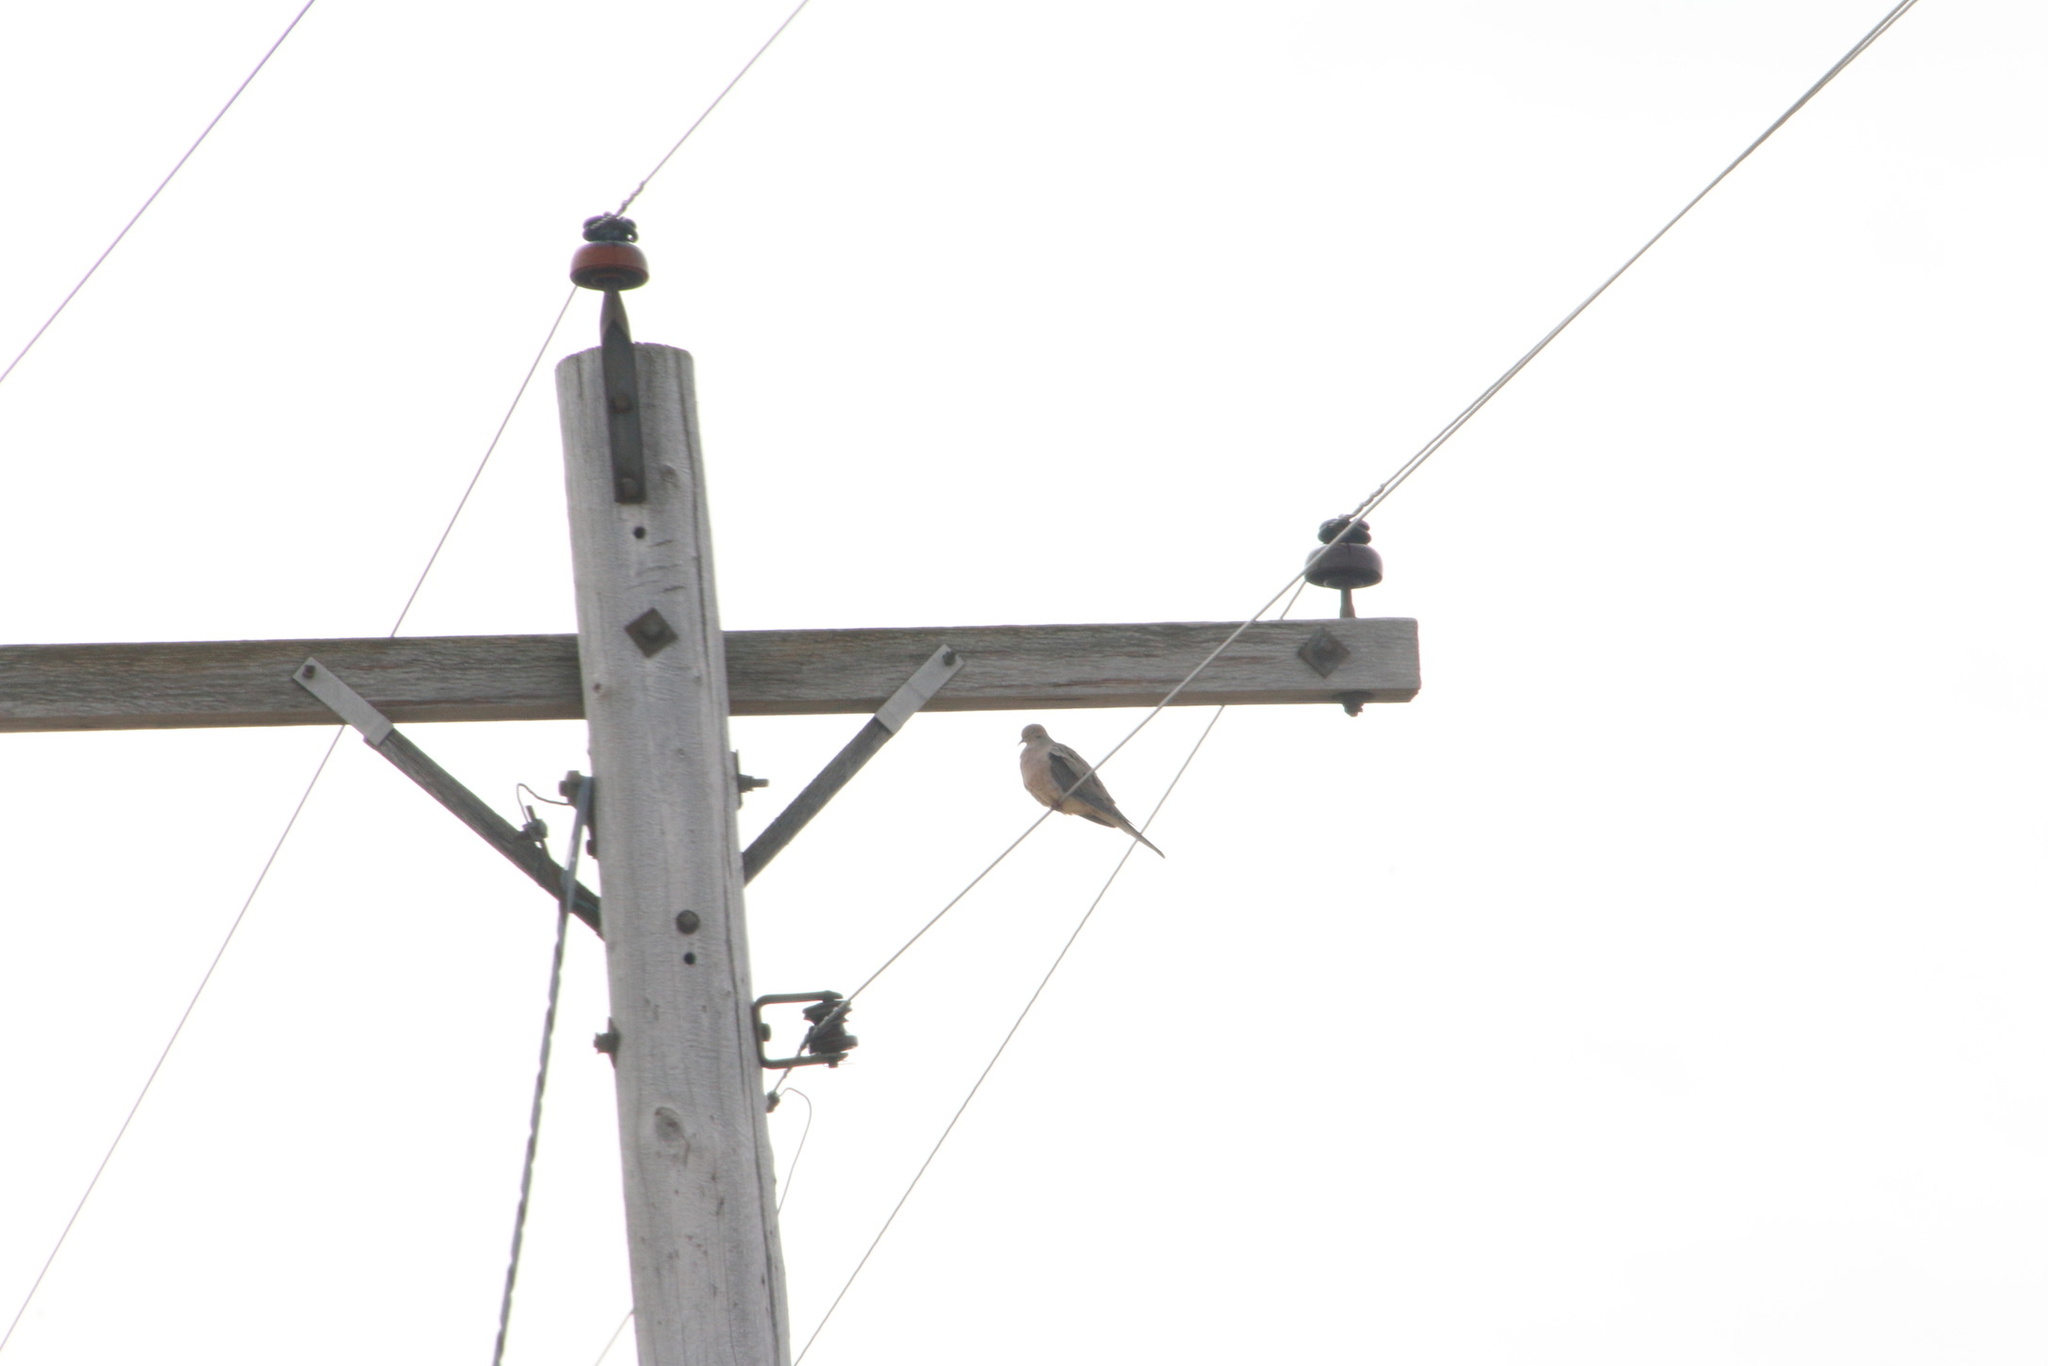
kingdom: Animalia
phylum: Chordata
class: Aves
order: Columbiformes
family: Columbidae
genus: Zenaida
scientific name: Zenaida macroura
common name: Mourning dove
